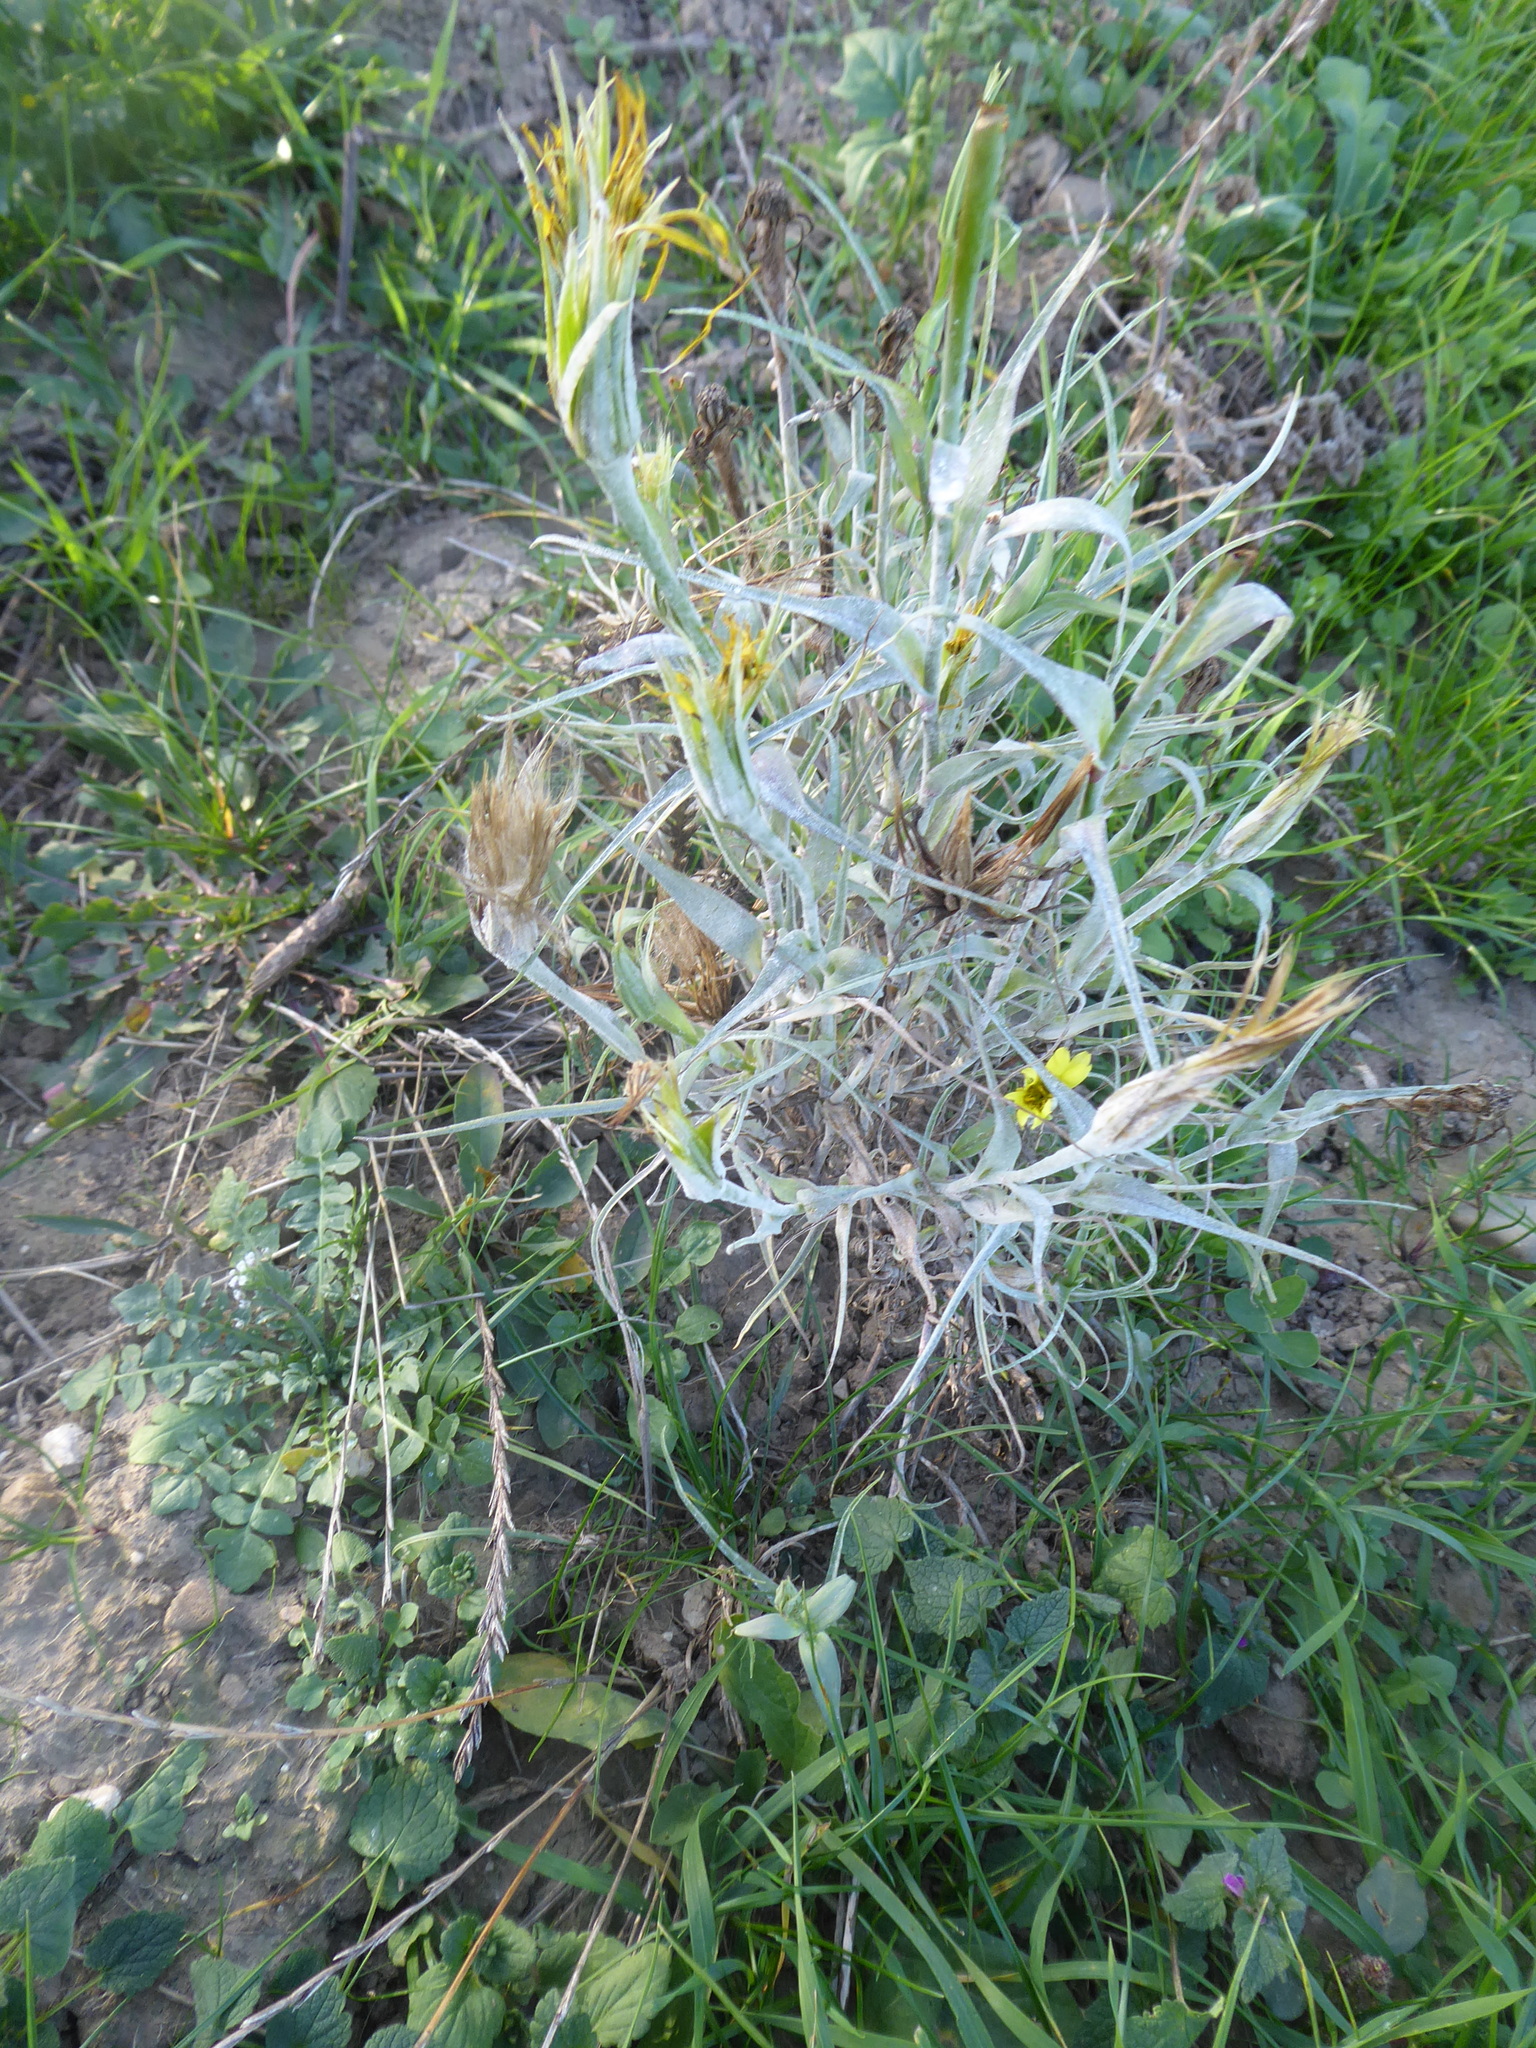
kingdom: Plantae
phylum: Tracheophyta
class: Magnoliopsida
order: Asterales
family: Asteraceae
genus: Tragopogon
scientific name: Tragopogon dubius
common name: Yellow salsify
